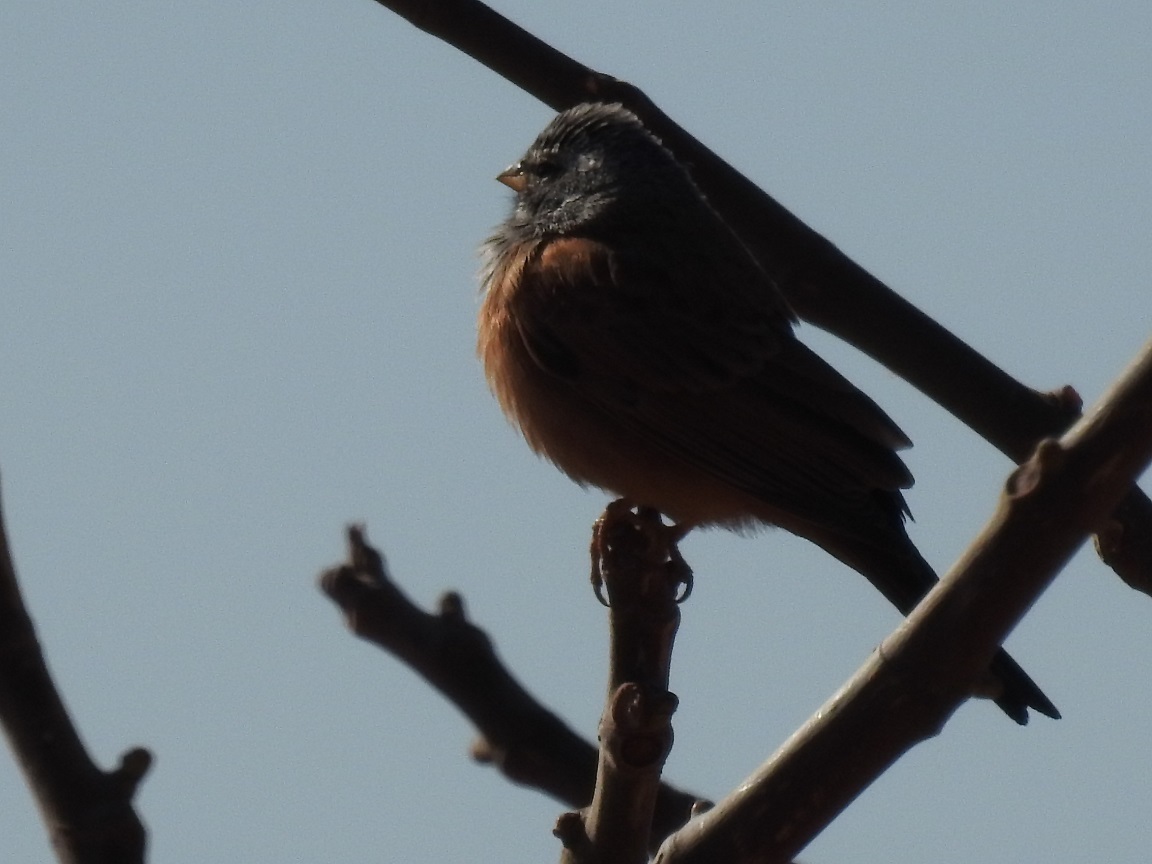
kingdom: Animalia
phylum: Chordata
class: Aves
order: Passeriformes
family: Emberizidae
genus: Emberiza
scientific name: Emberiza sahari
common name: House bunting
